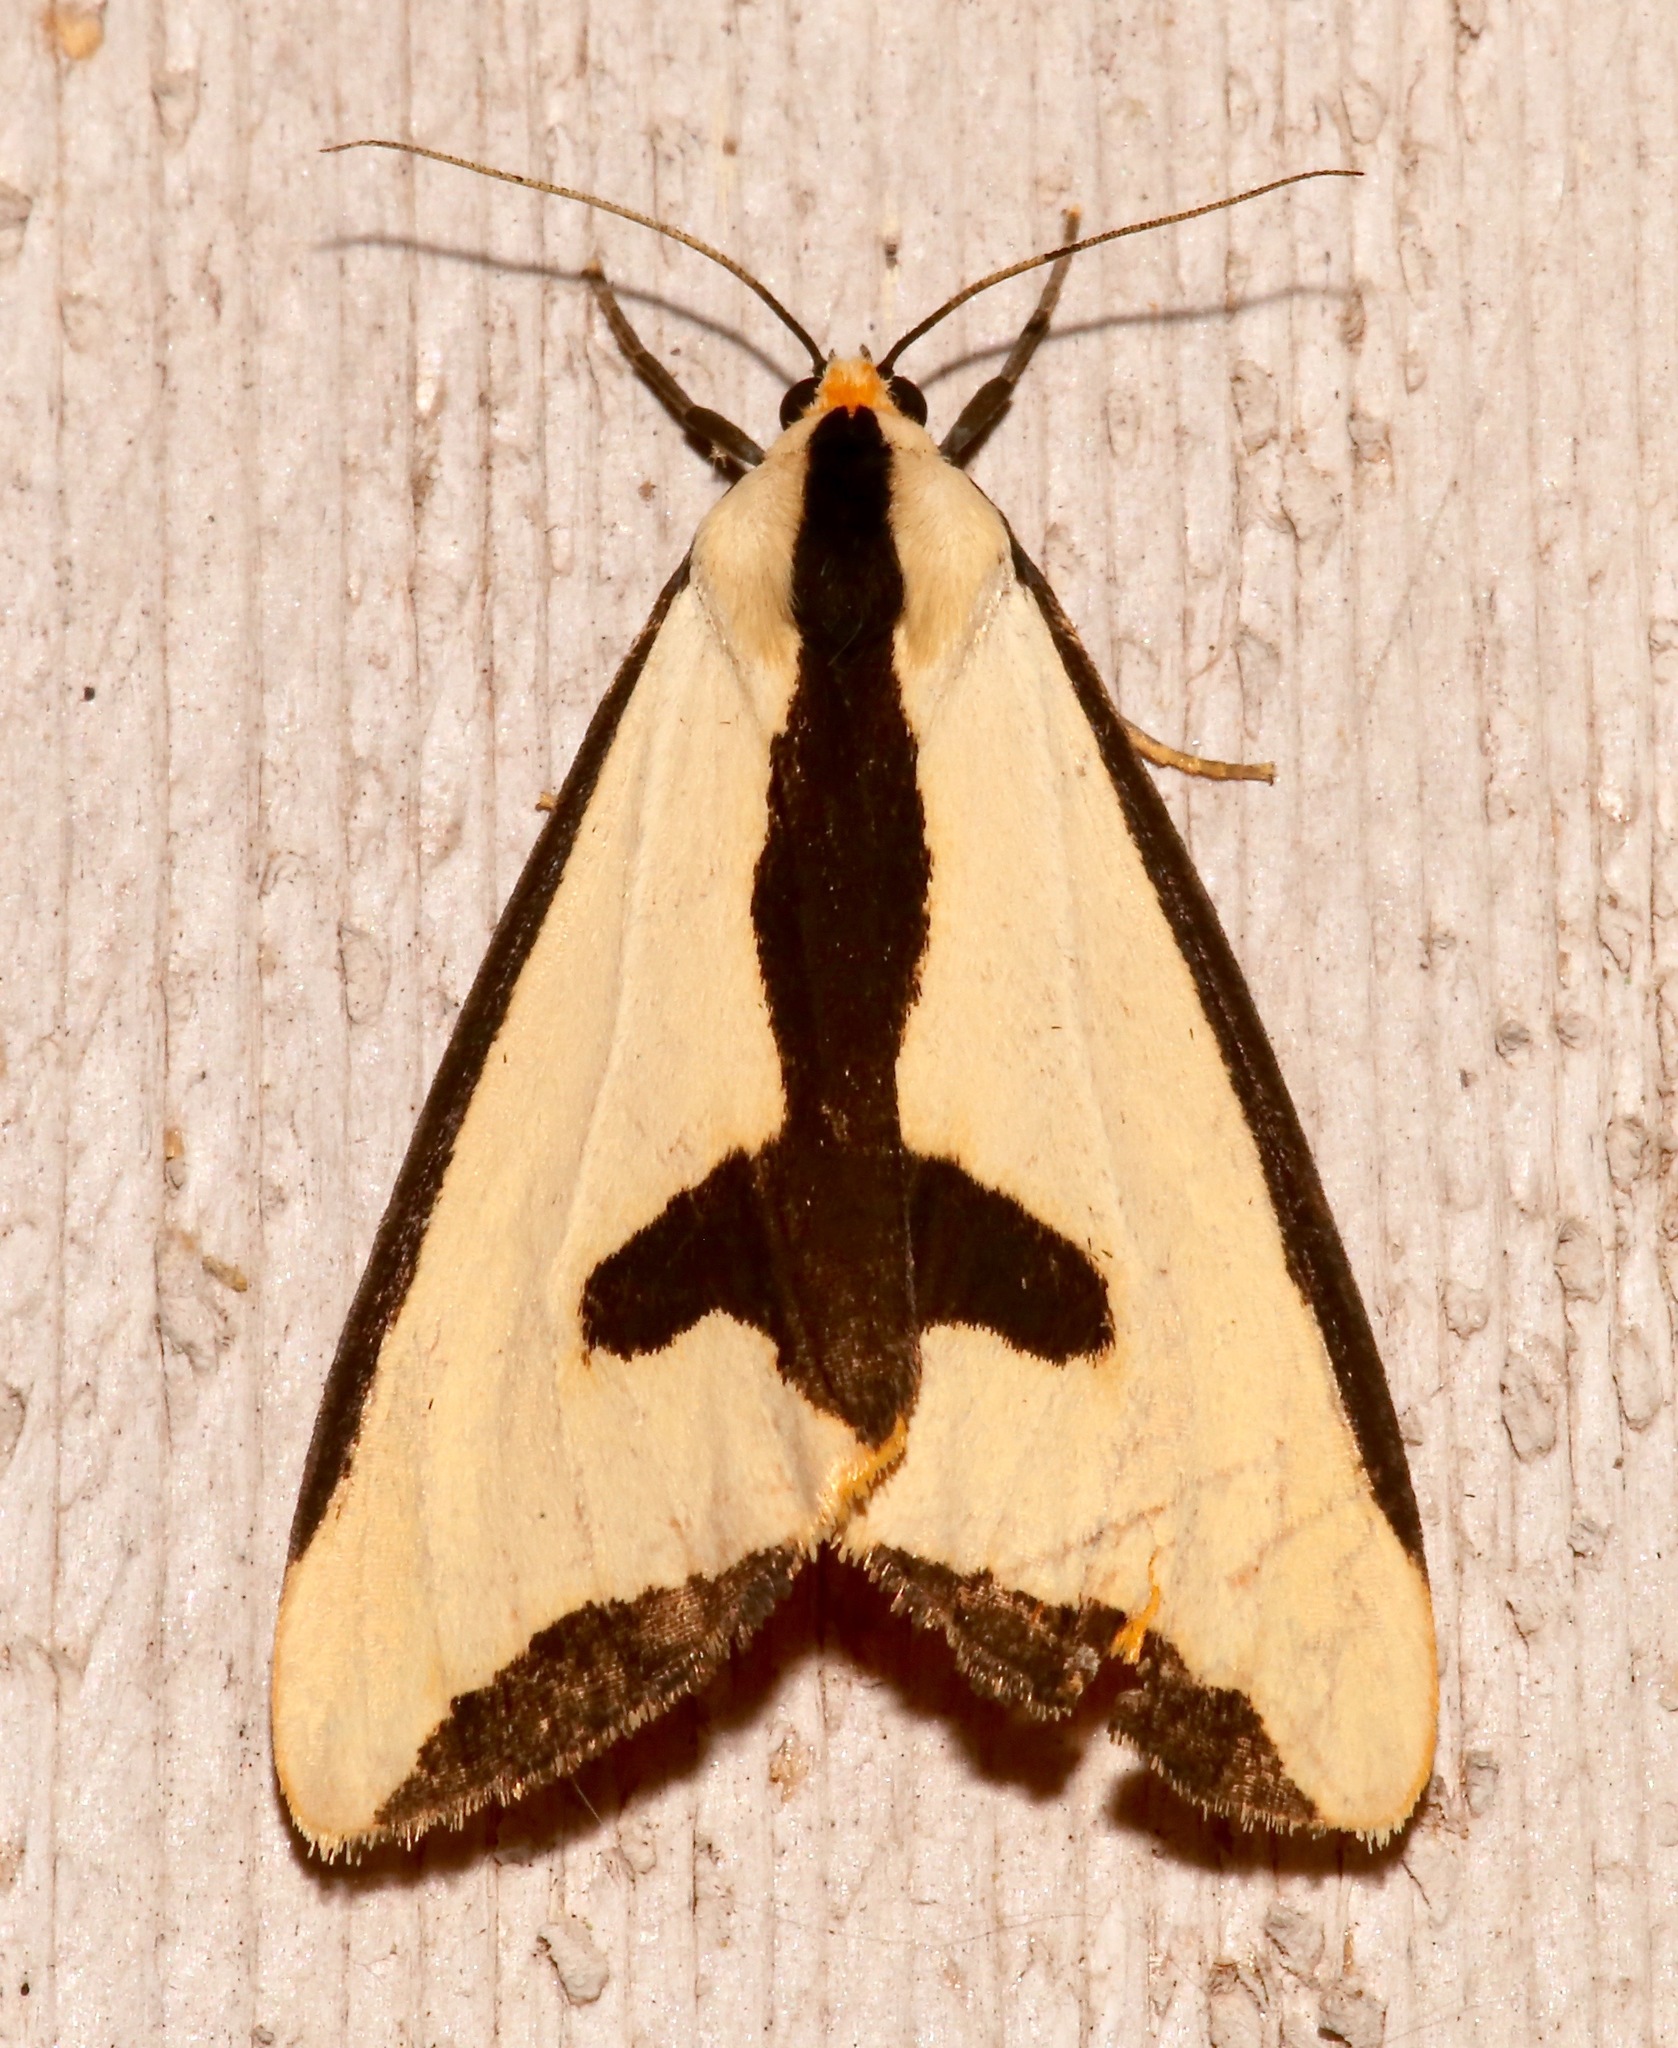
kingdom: Animalia
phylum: Arthropoda
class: Insecta
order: Lepidoptera
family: Erebidae
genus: Haploa
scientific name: Haploa clymene
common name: Clymene moth
